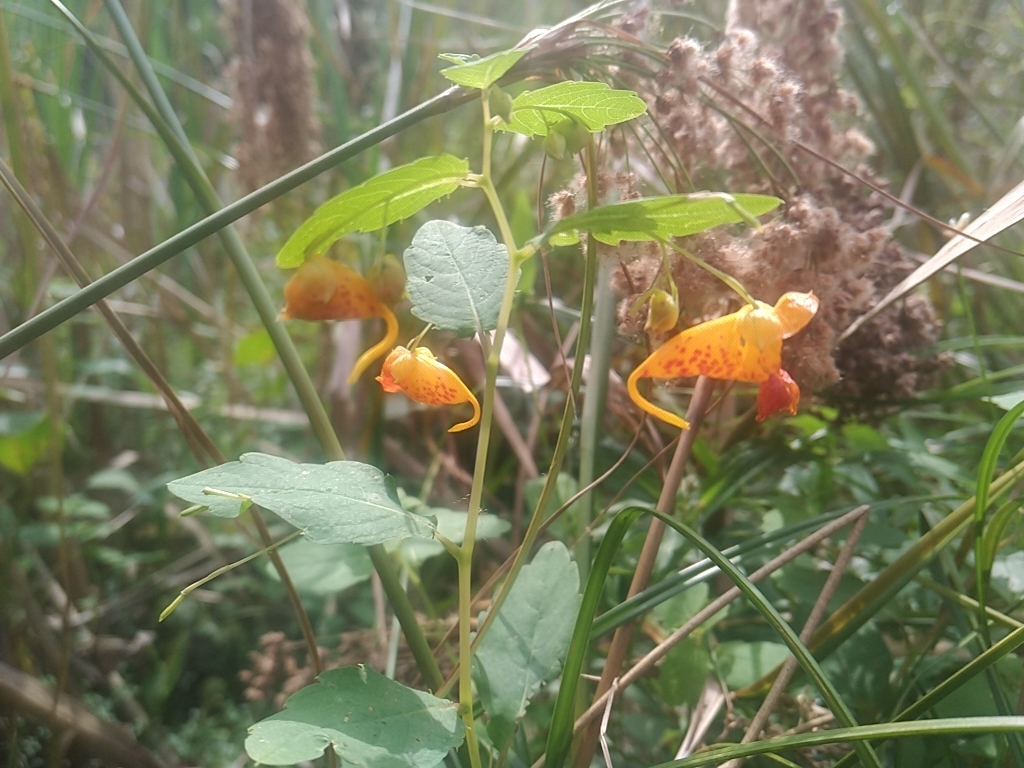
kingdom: Plantae
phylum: Tracheophyta
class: Magnoliopsida
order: Ericales
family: Balsaminaceae
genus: Impatiens
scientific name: Impatiens capensis
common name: Orange balsam
